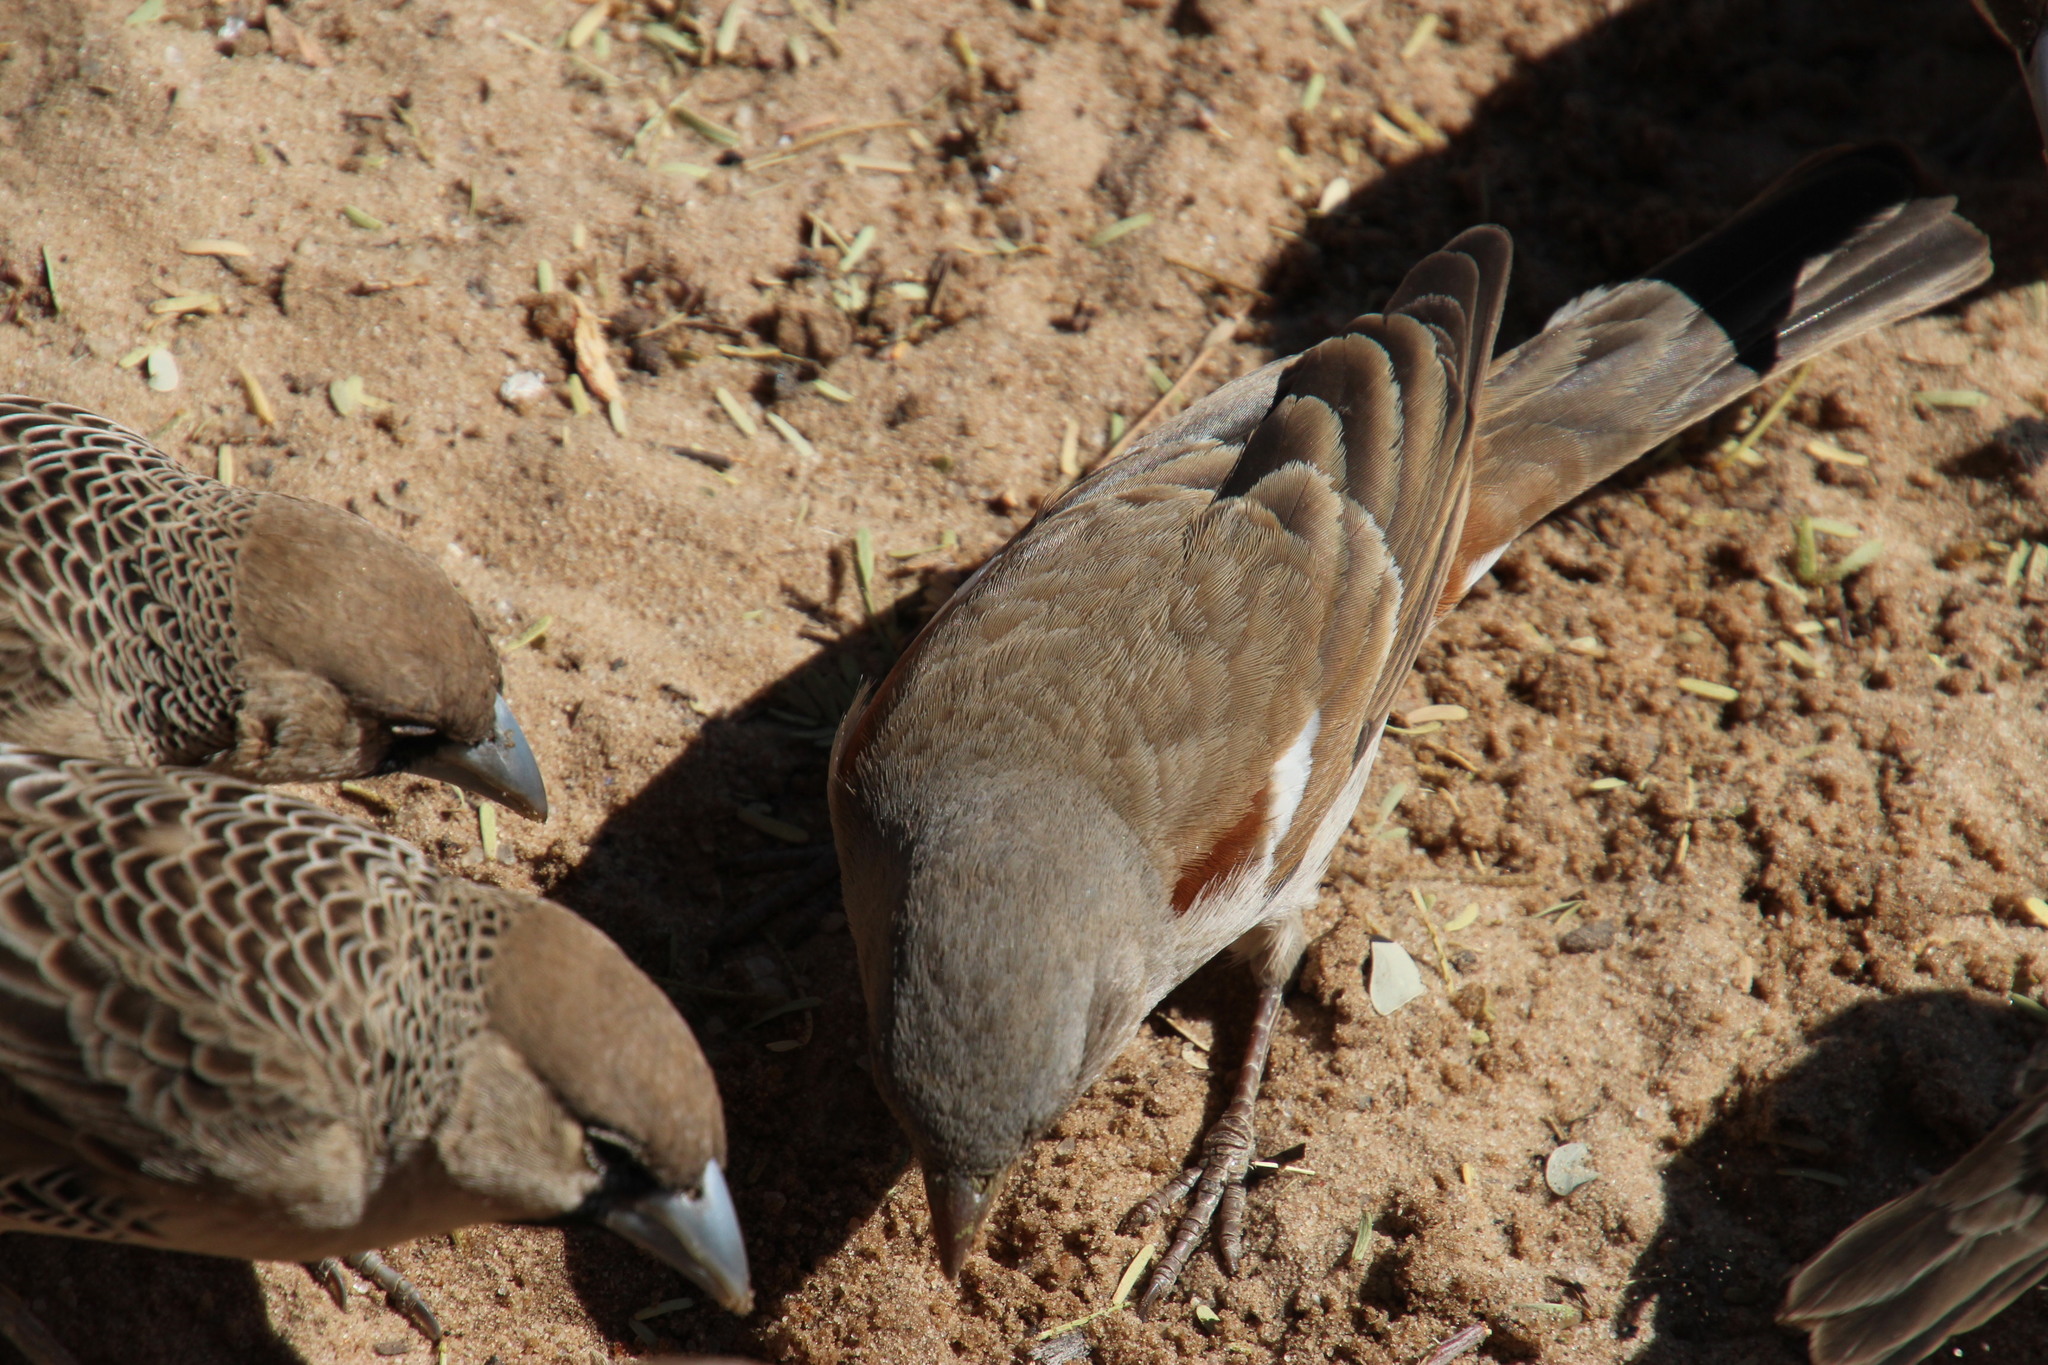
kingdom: Animalia
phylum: Chordata
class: Aves
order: Passeriformes
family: Passeridae
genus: Passer
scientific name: Passer diffusus
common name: Southern grey-headed sparrow
